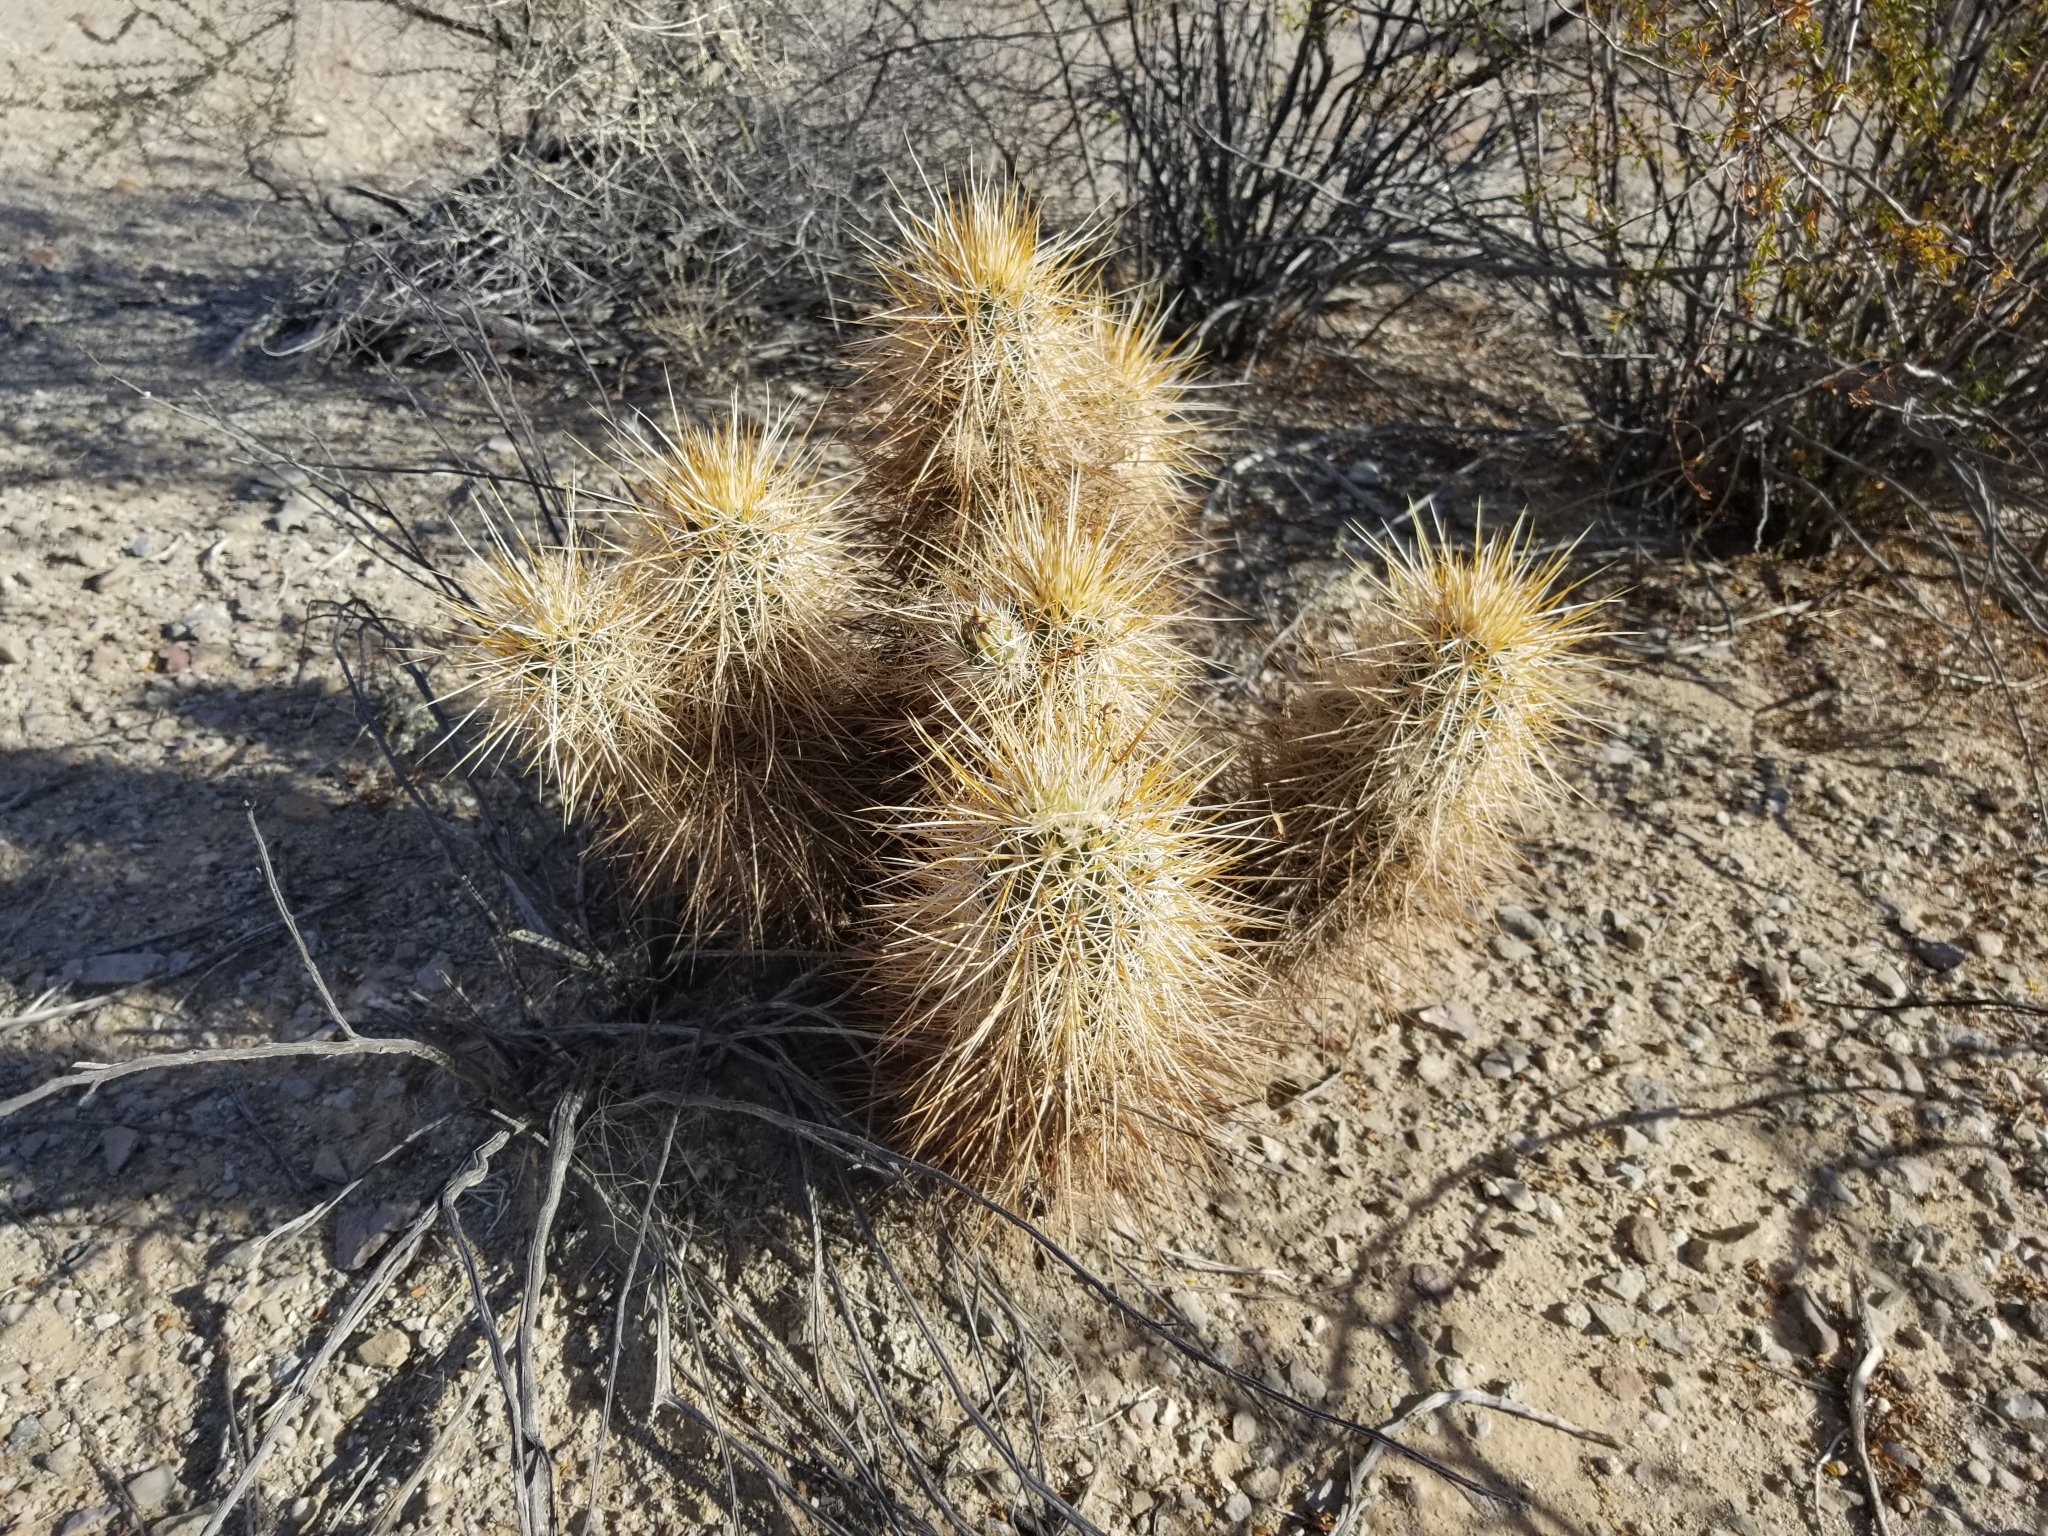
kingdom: Plantae
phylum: Tracheophyta
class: Magnoliopsida
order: Caryophyllales
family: Cactaceae
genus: Echinocereus
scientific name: Echinocereus engelmannii
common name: Engelmann's hedgehog cactus
